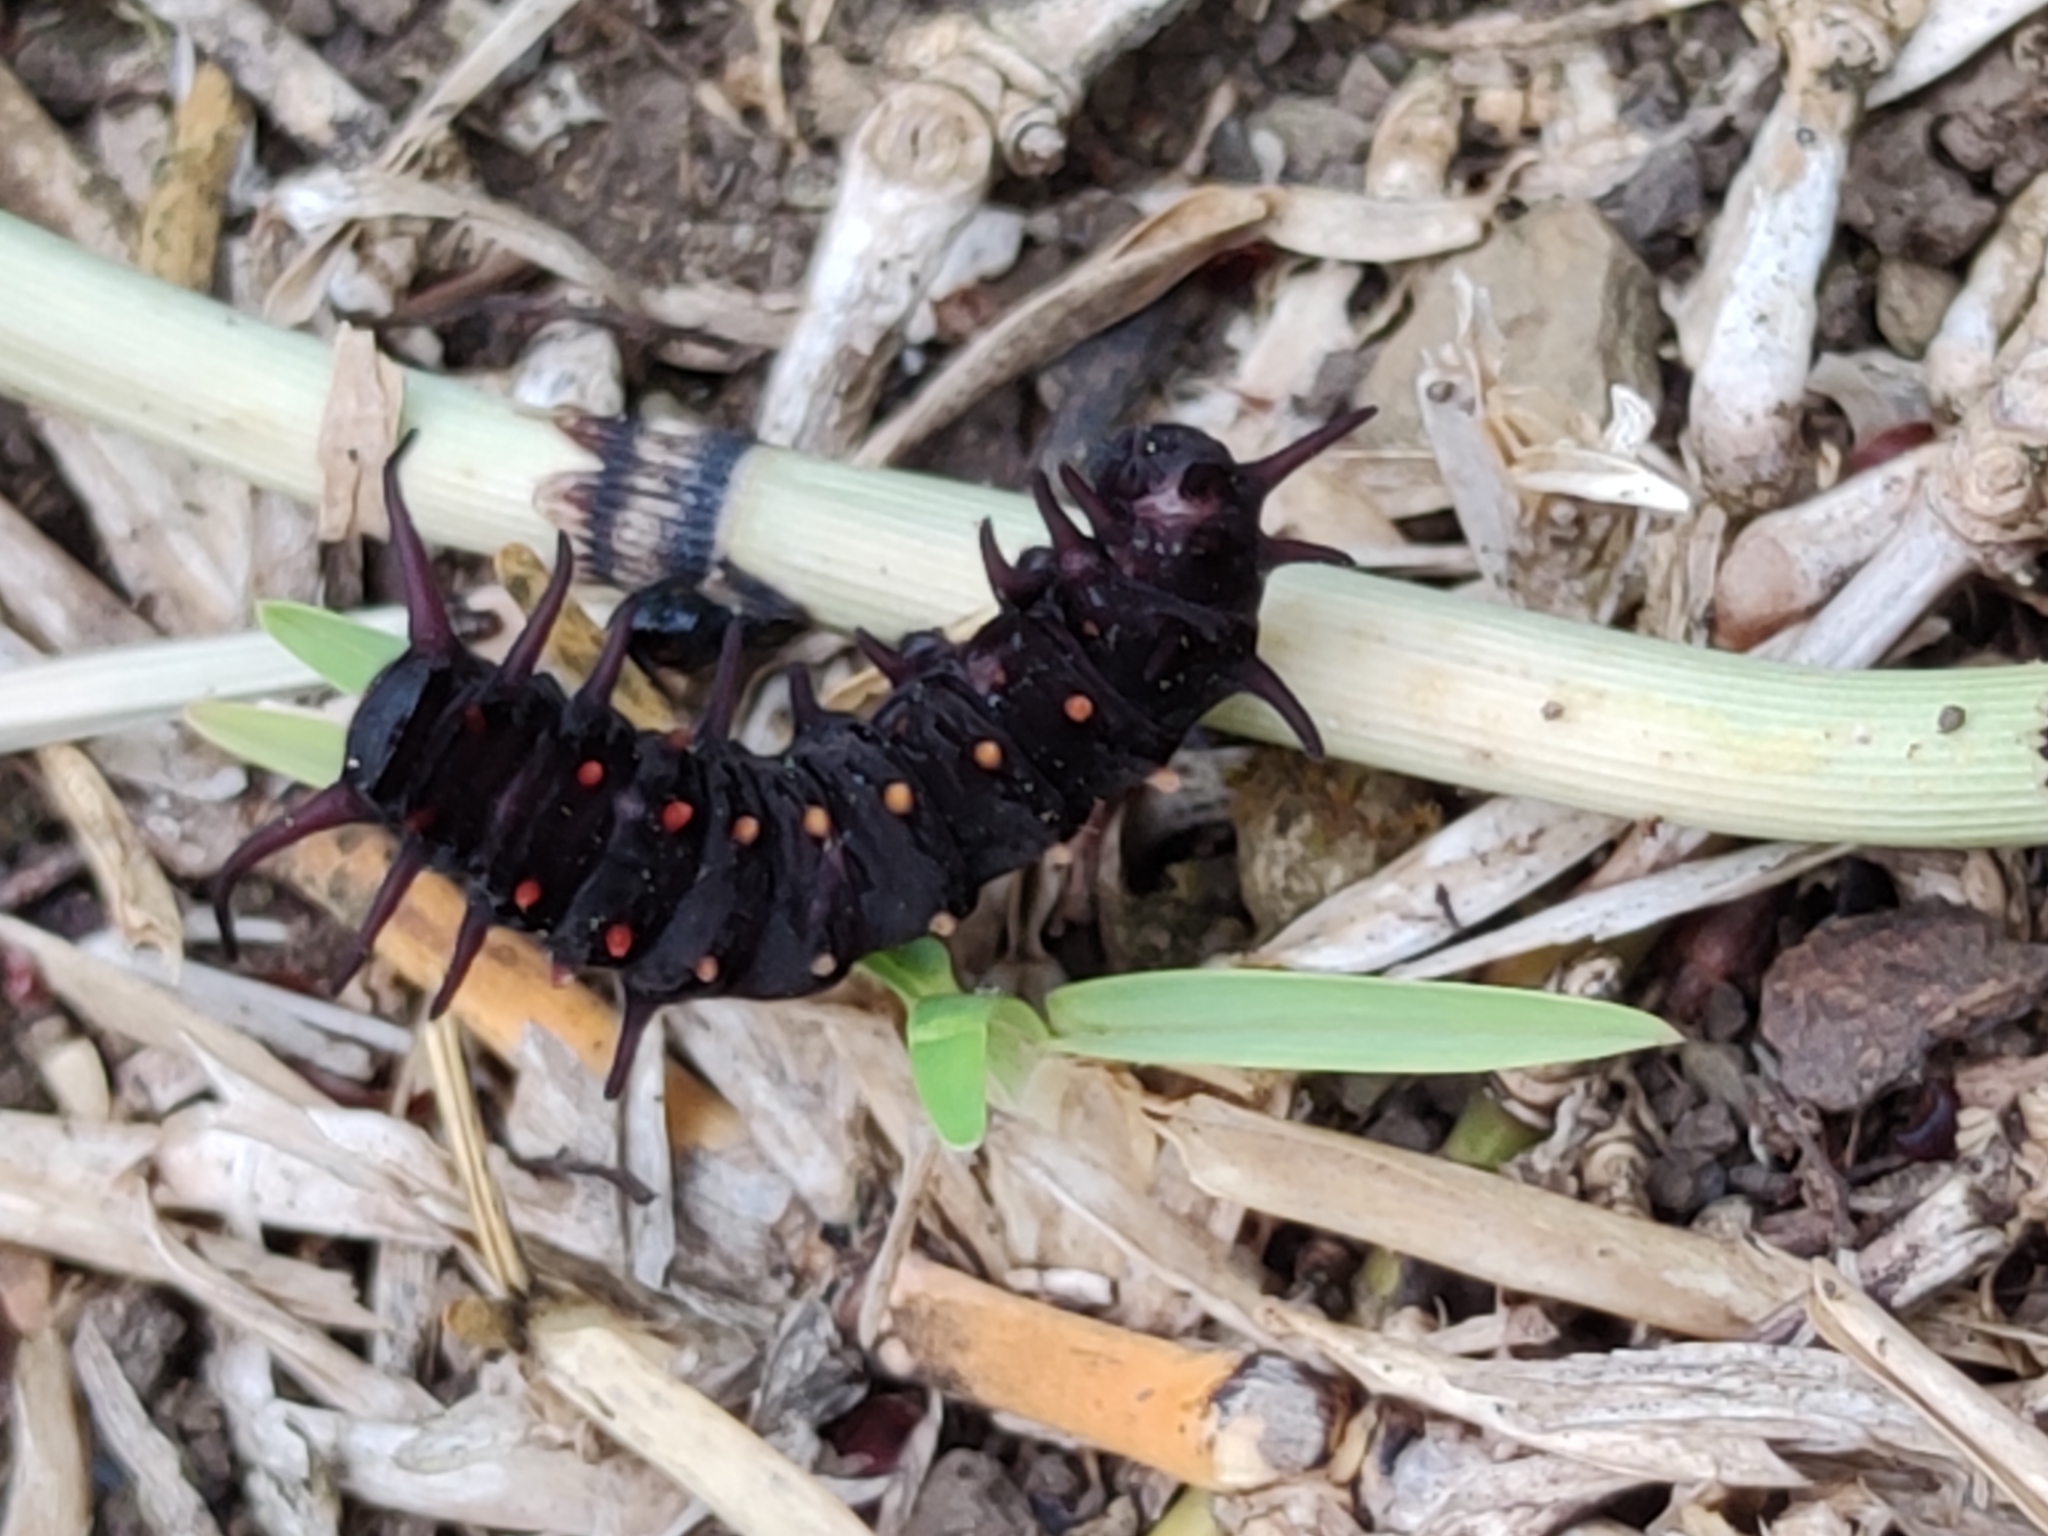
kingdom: Animalia
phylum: Arthropoda
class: Insecta
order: Lepidoptera
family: Papilionidae
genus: Battus
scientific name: Battus philenor
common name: Pipevine swallowtail
